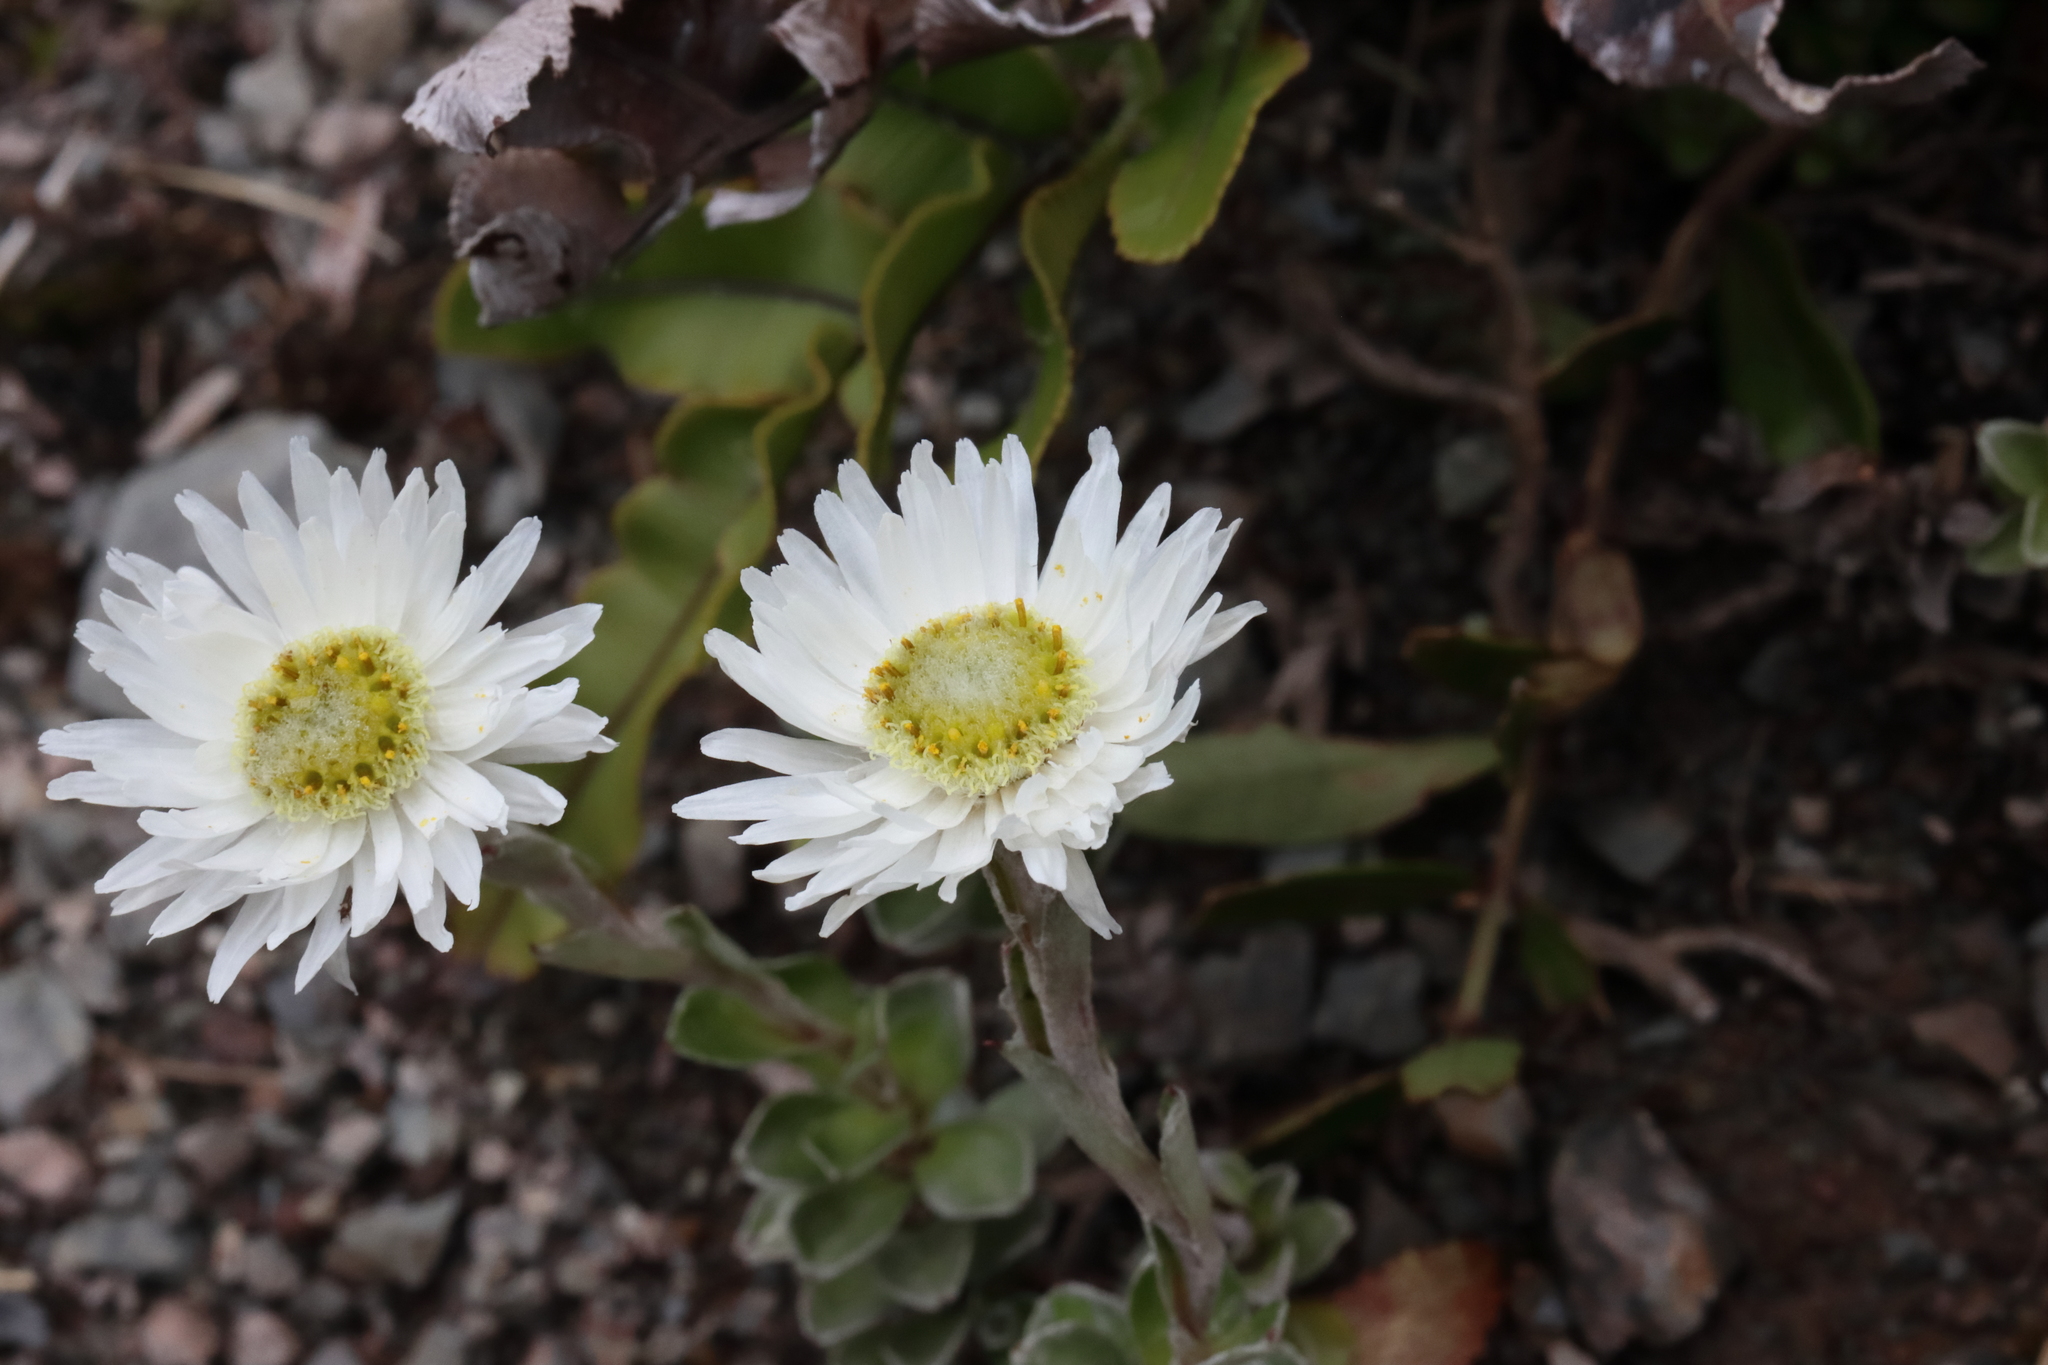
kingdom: Plantae
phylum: Tracheophyta
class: Magnoliopsida
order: Asterales
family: Asteraceae
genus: Anaphalioides
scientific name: Anaphalioides alpina
